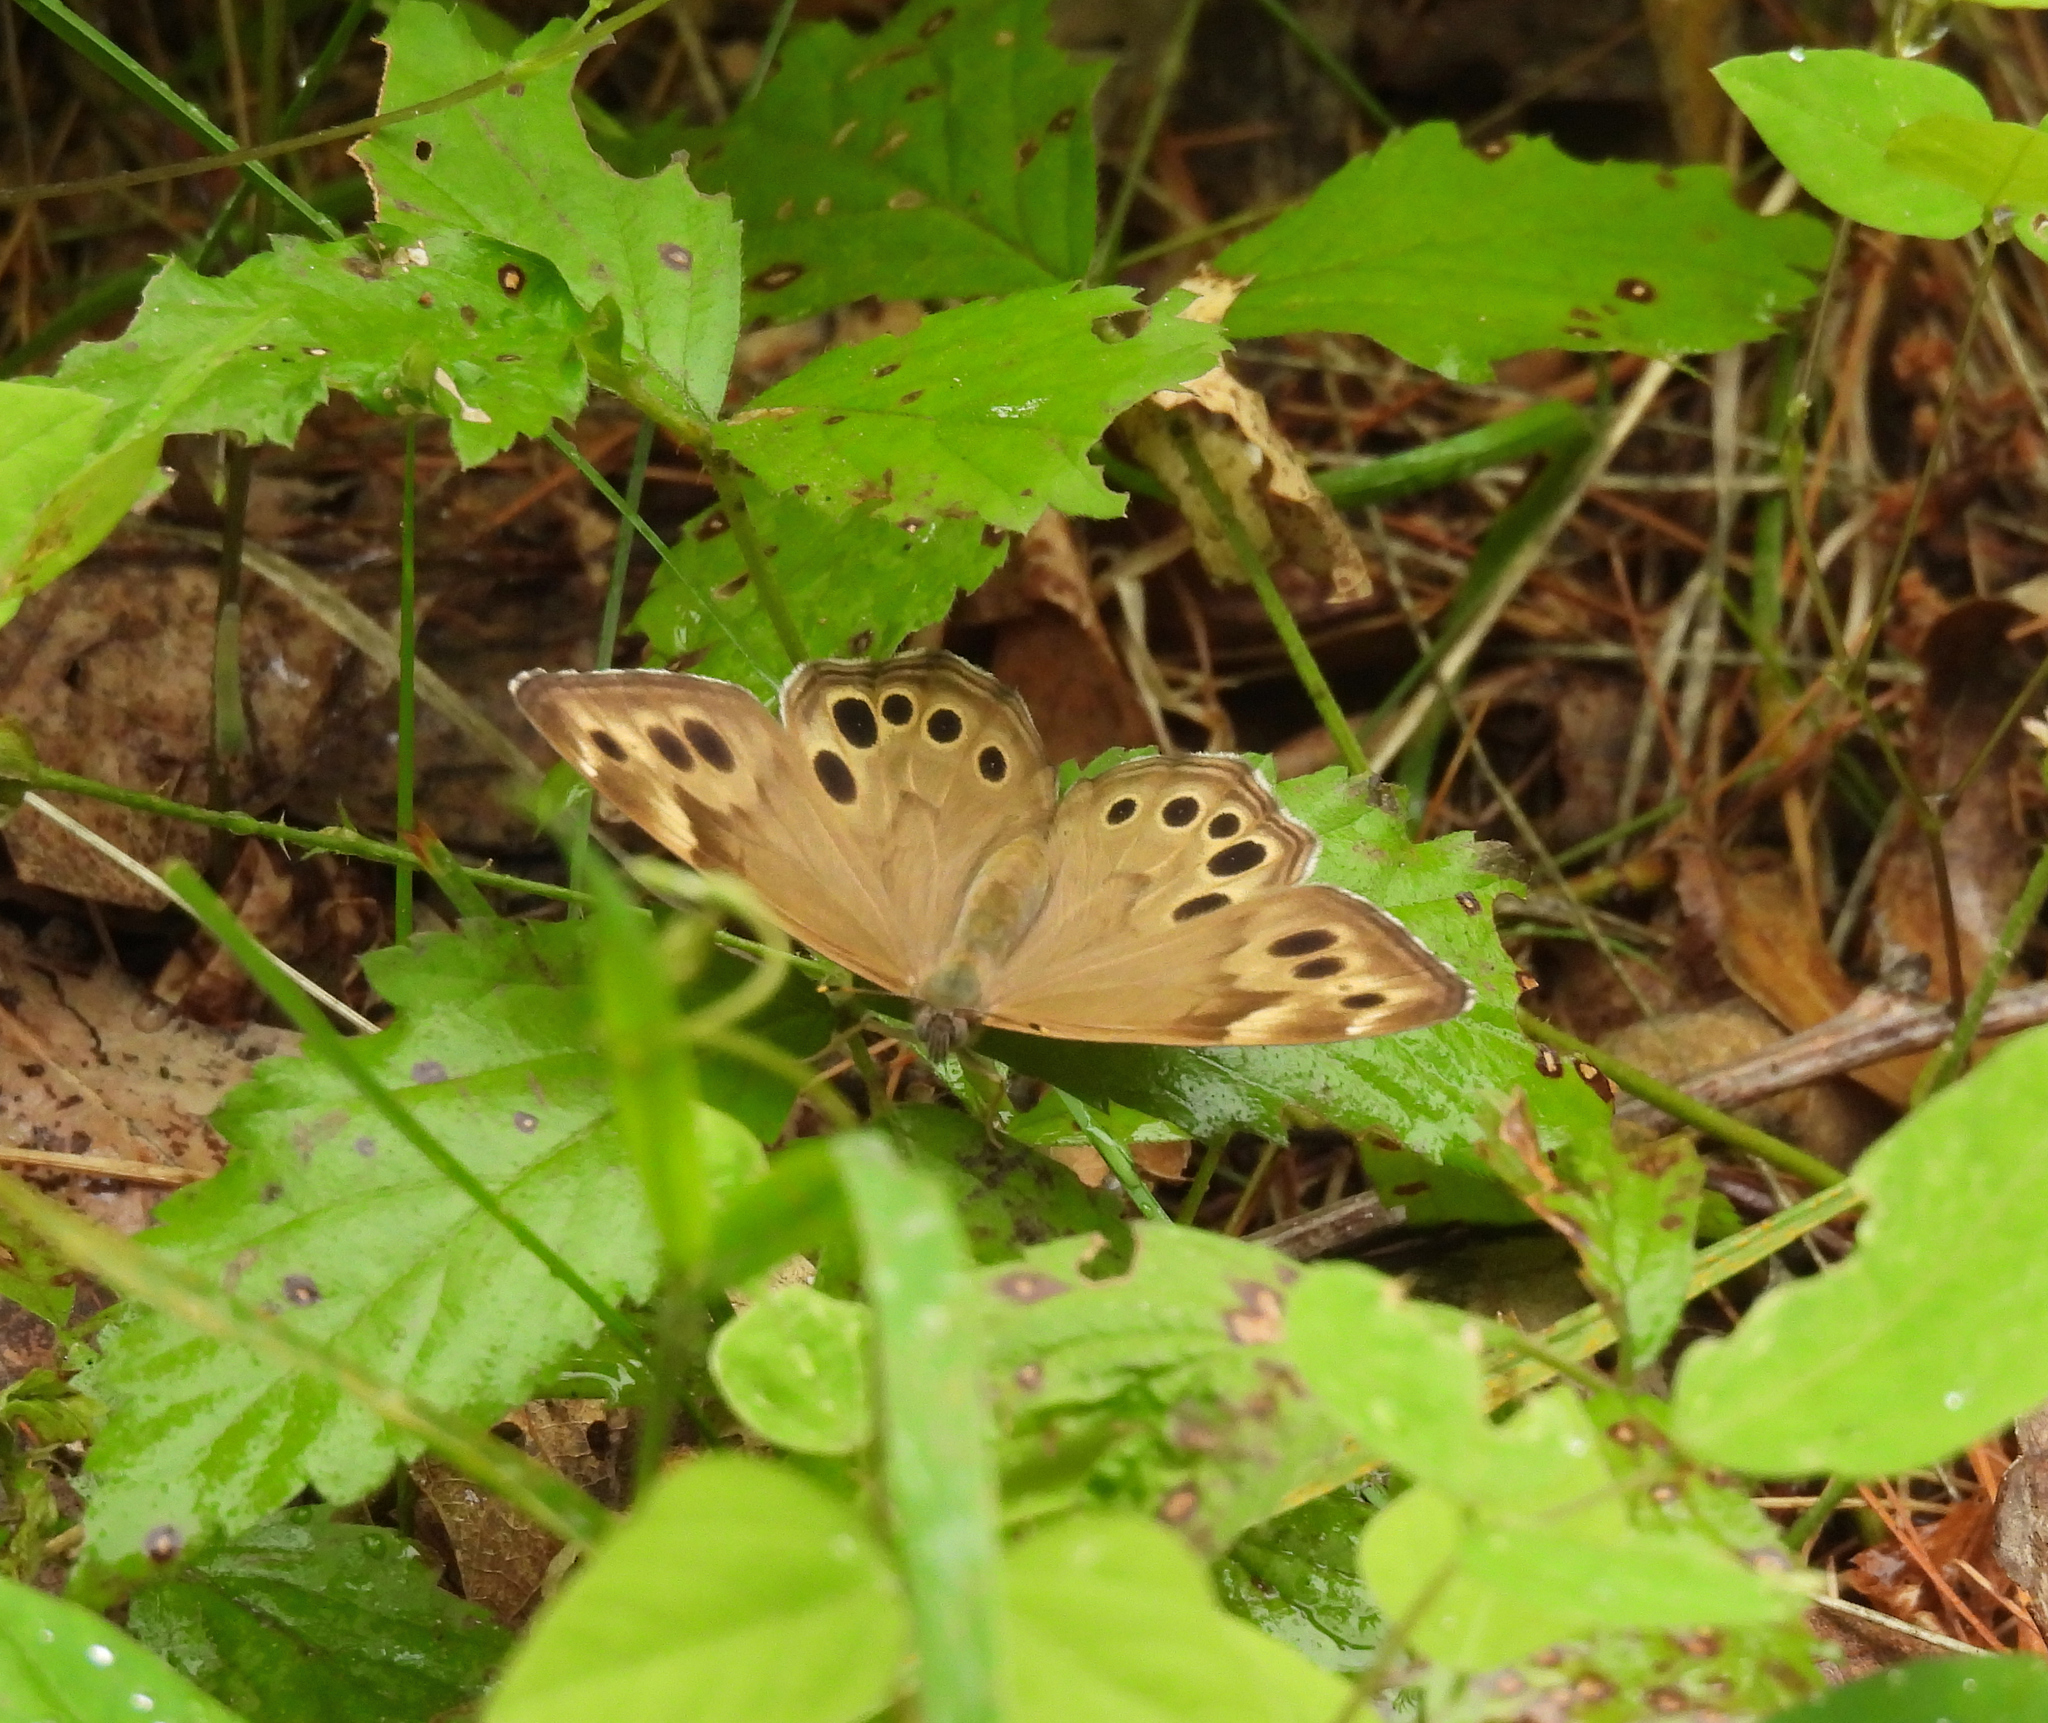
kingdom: Animalia
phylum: Arthropoda
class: Insecta
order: Lepidoptera
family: Nymphalidae
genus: Lethe
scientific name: Lethe anthedon
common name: Northern pearly-eye
